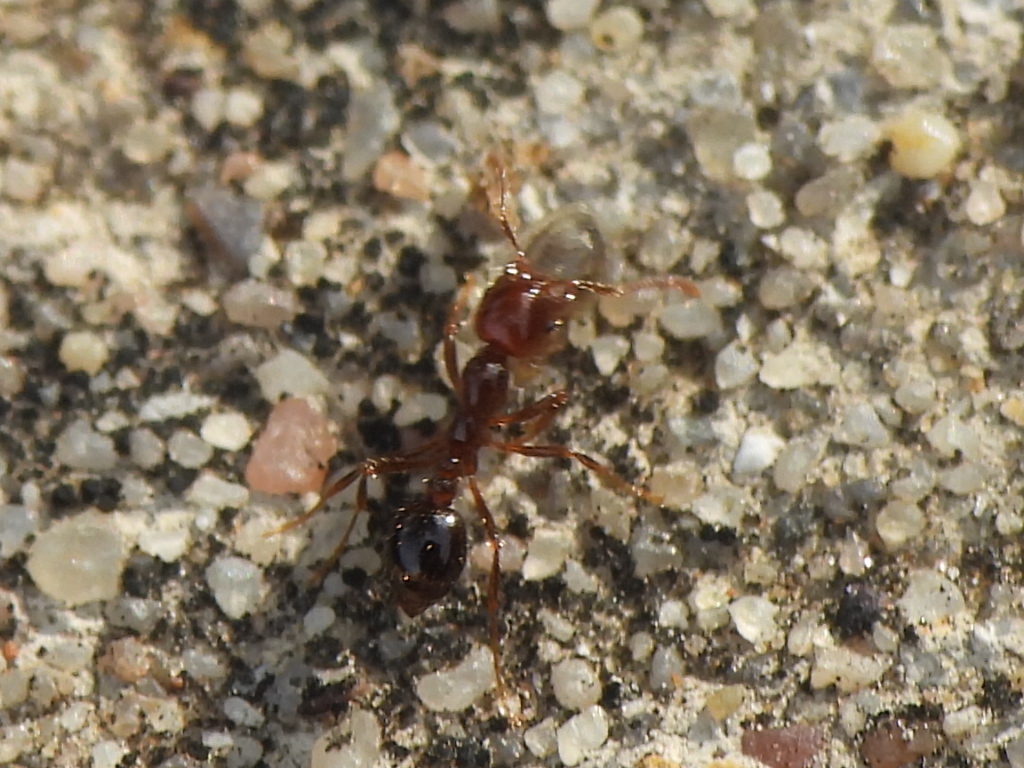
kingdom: Animalia
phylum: Arthropoda
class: Insecta
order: Hymenoptera
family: Formicidae
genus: Solenopsis
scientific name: Solenopsis invicta
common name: Red imported fire ant
